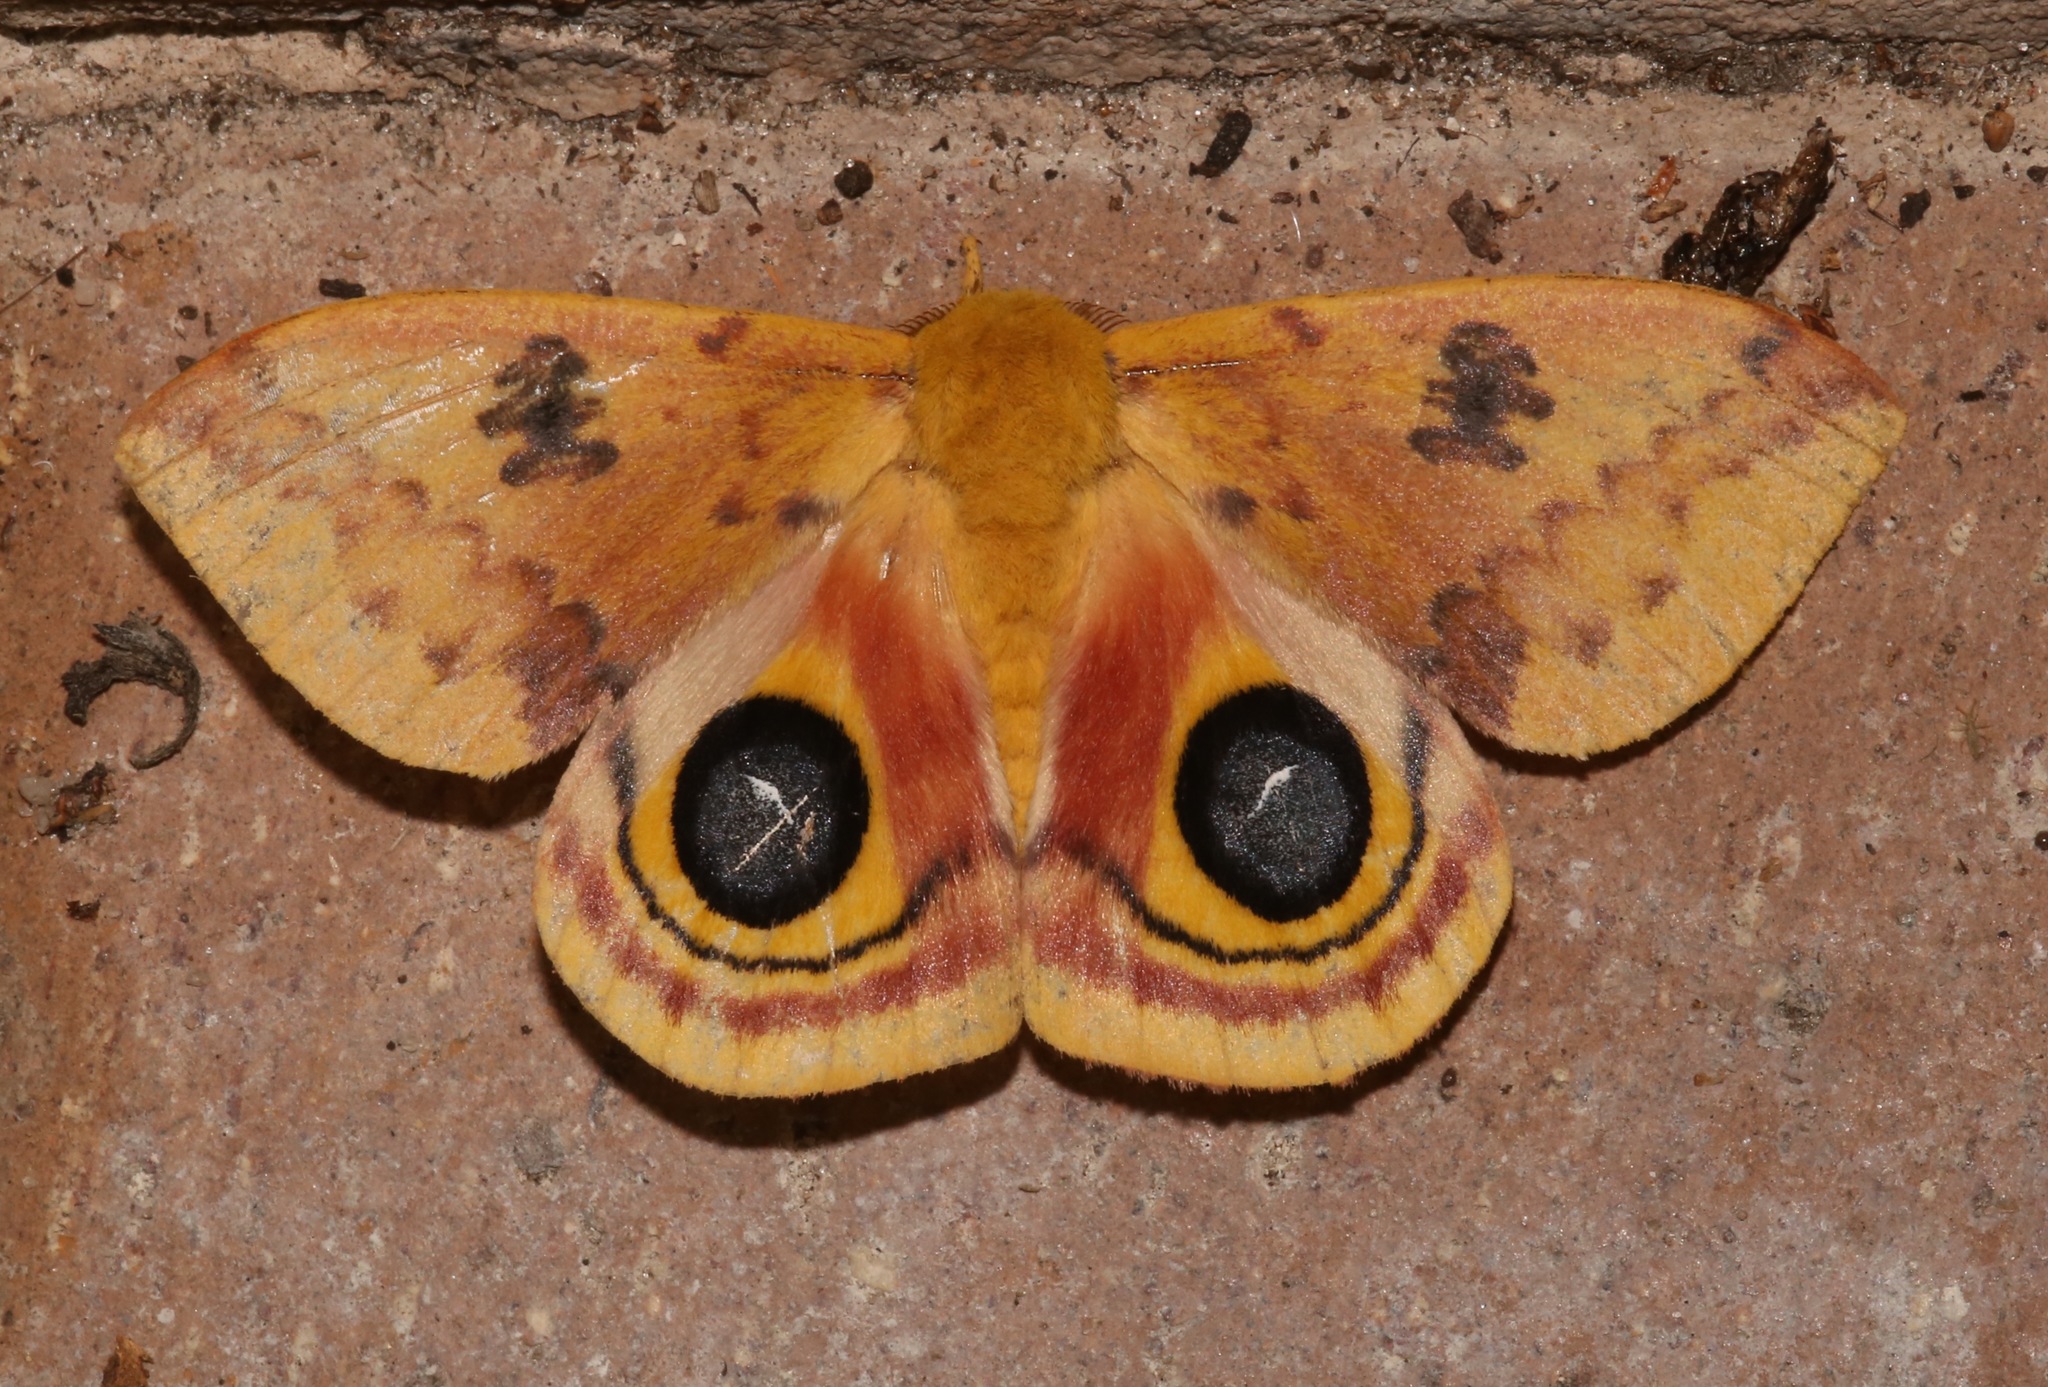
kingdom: Animalia
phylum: Arthropoda
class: Insecta
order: Lepidoptera
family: Saturniidae
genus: Automeris
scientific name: Automeris io
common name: Io moth
